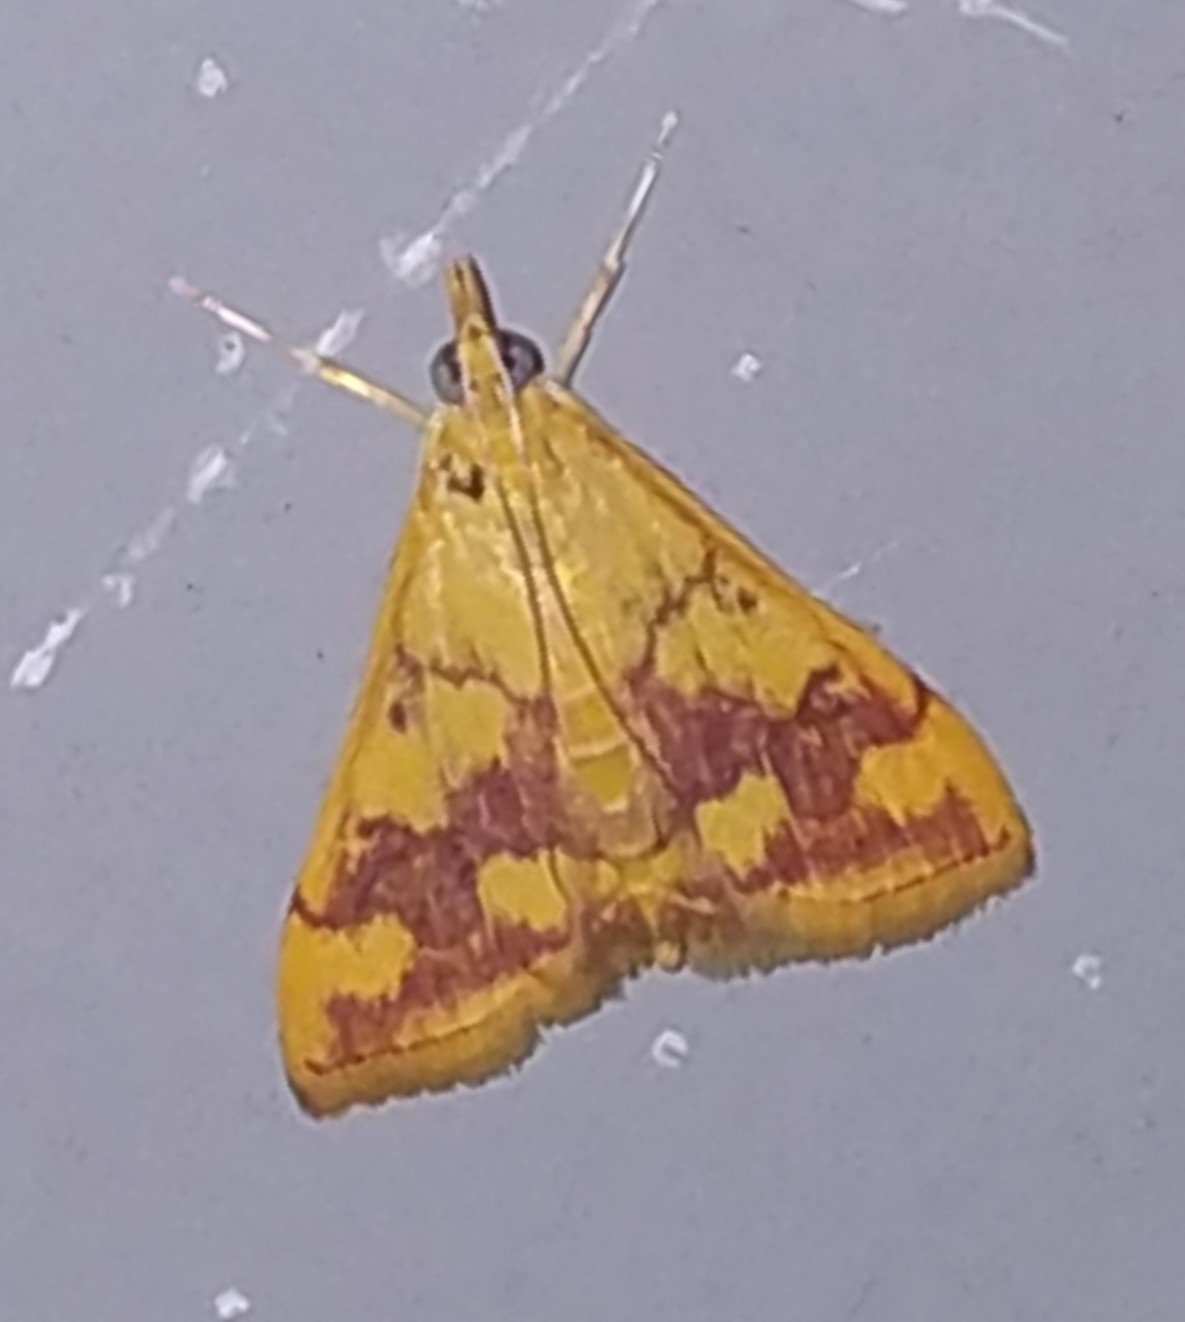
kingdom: Animalia
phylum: Arthropoda
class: Insecta
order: Lepidoptera
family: Crambidae
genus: Pyrausta
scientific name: Pyrausta phoenicealis
